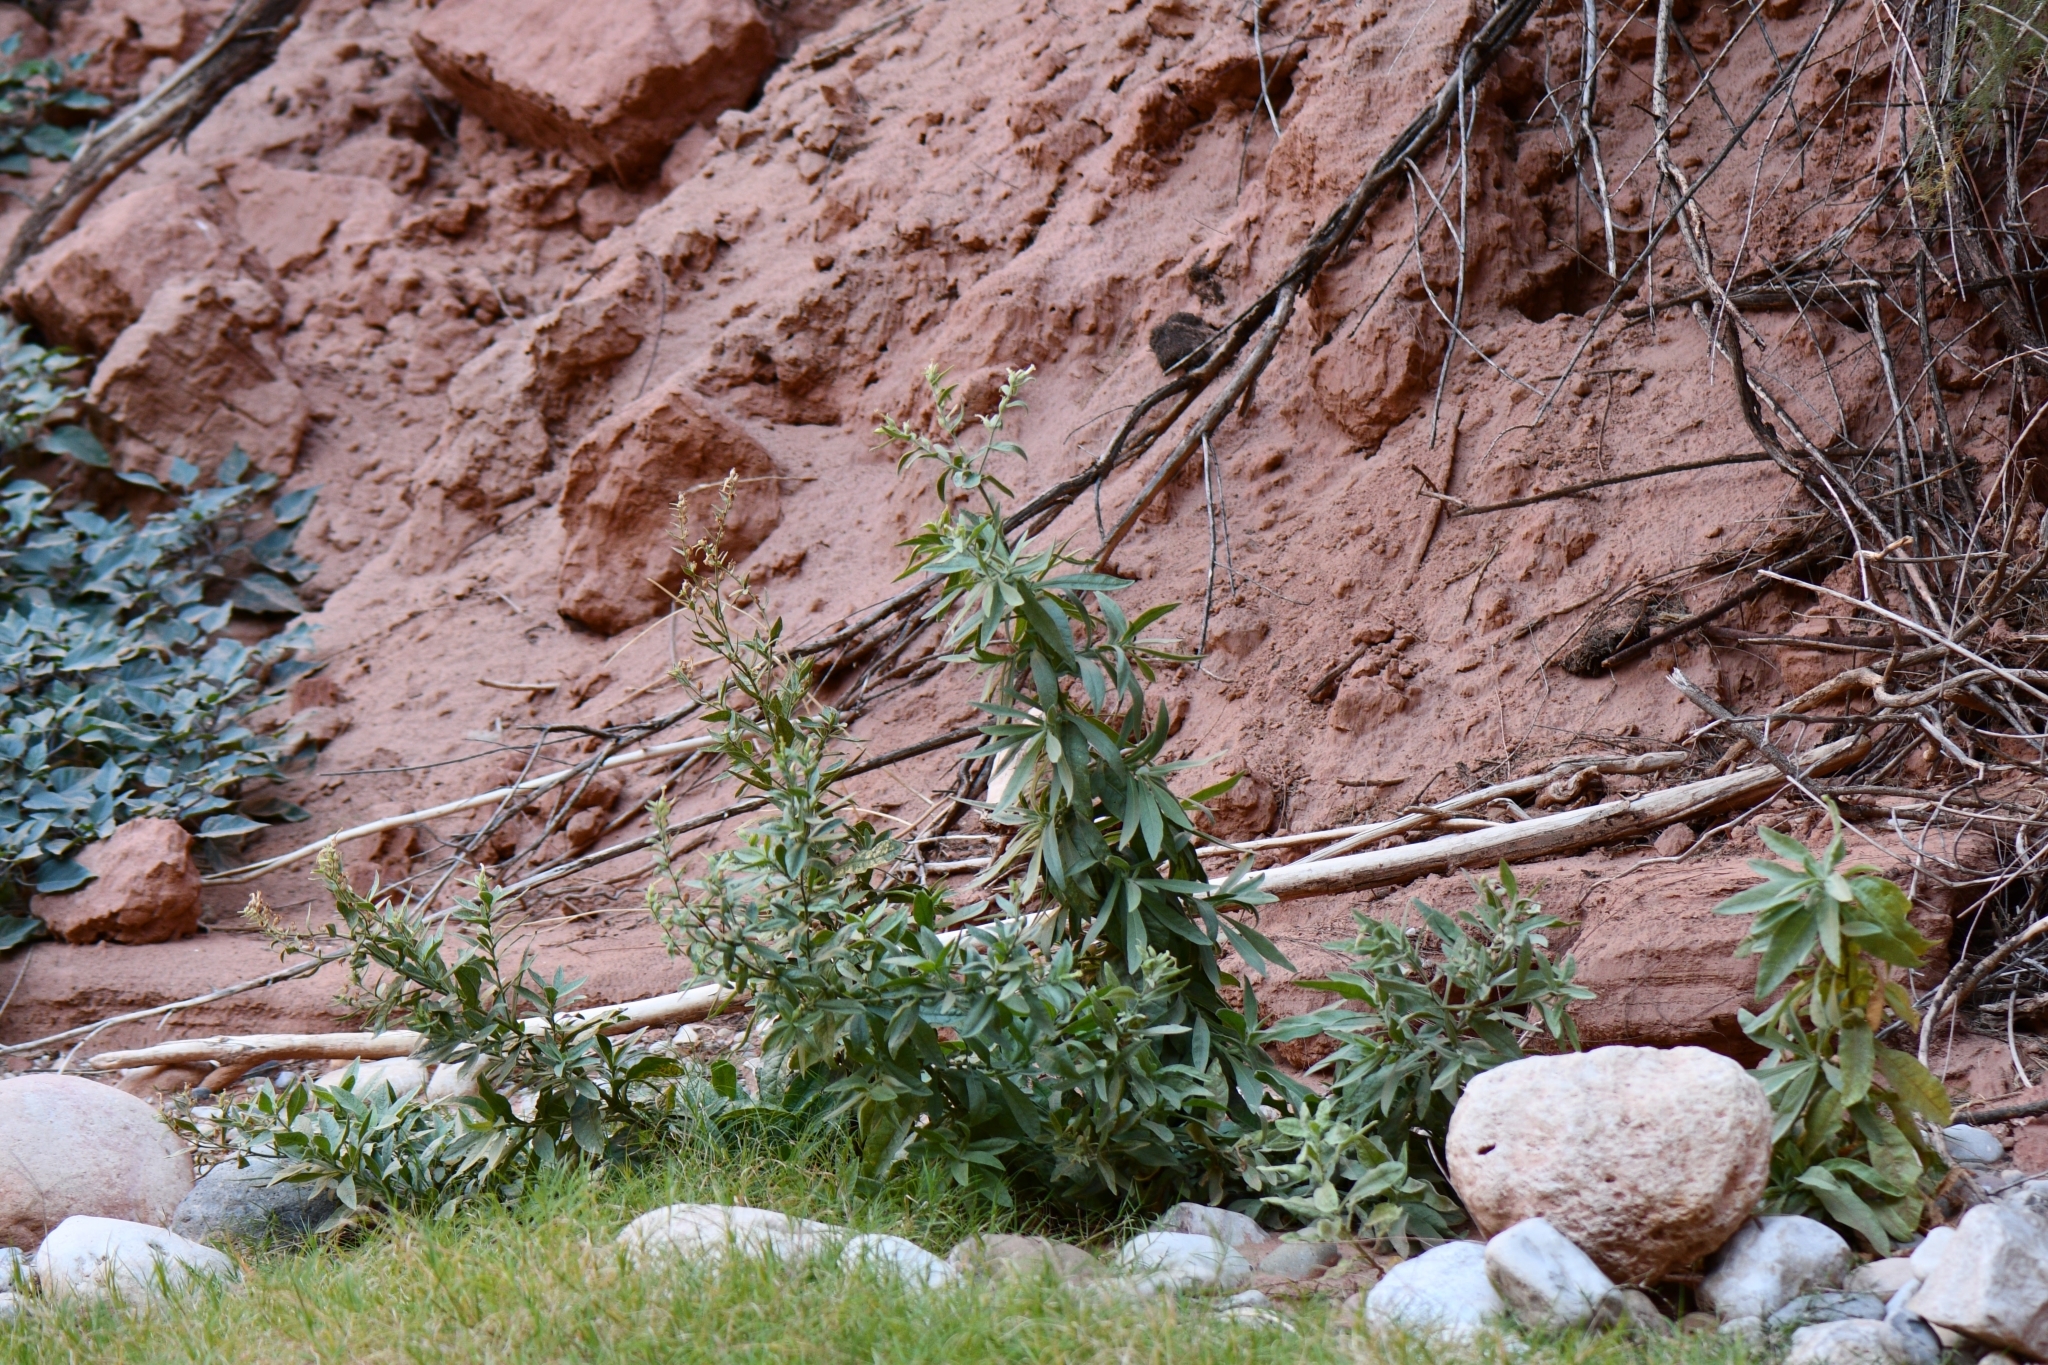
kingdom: Plantae
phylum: Tracheophyta
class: Magnoliopsida
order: Solanales
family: Solanaceae
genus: Nicotiana
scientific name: Nicotiana obtusifolia
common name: Desert tobacco
